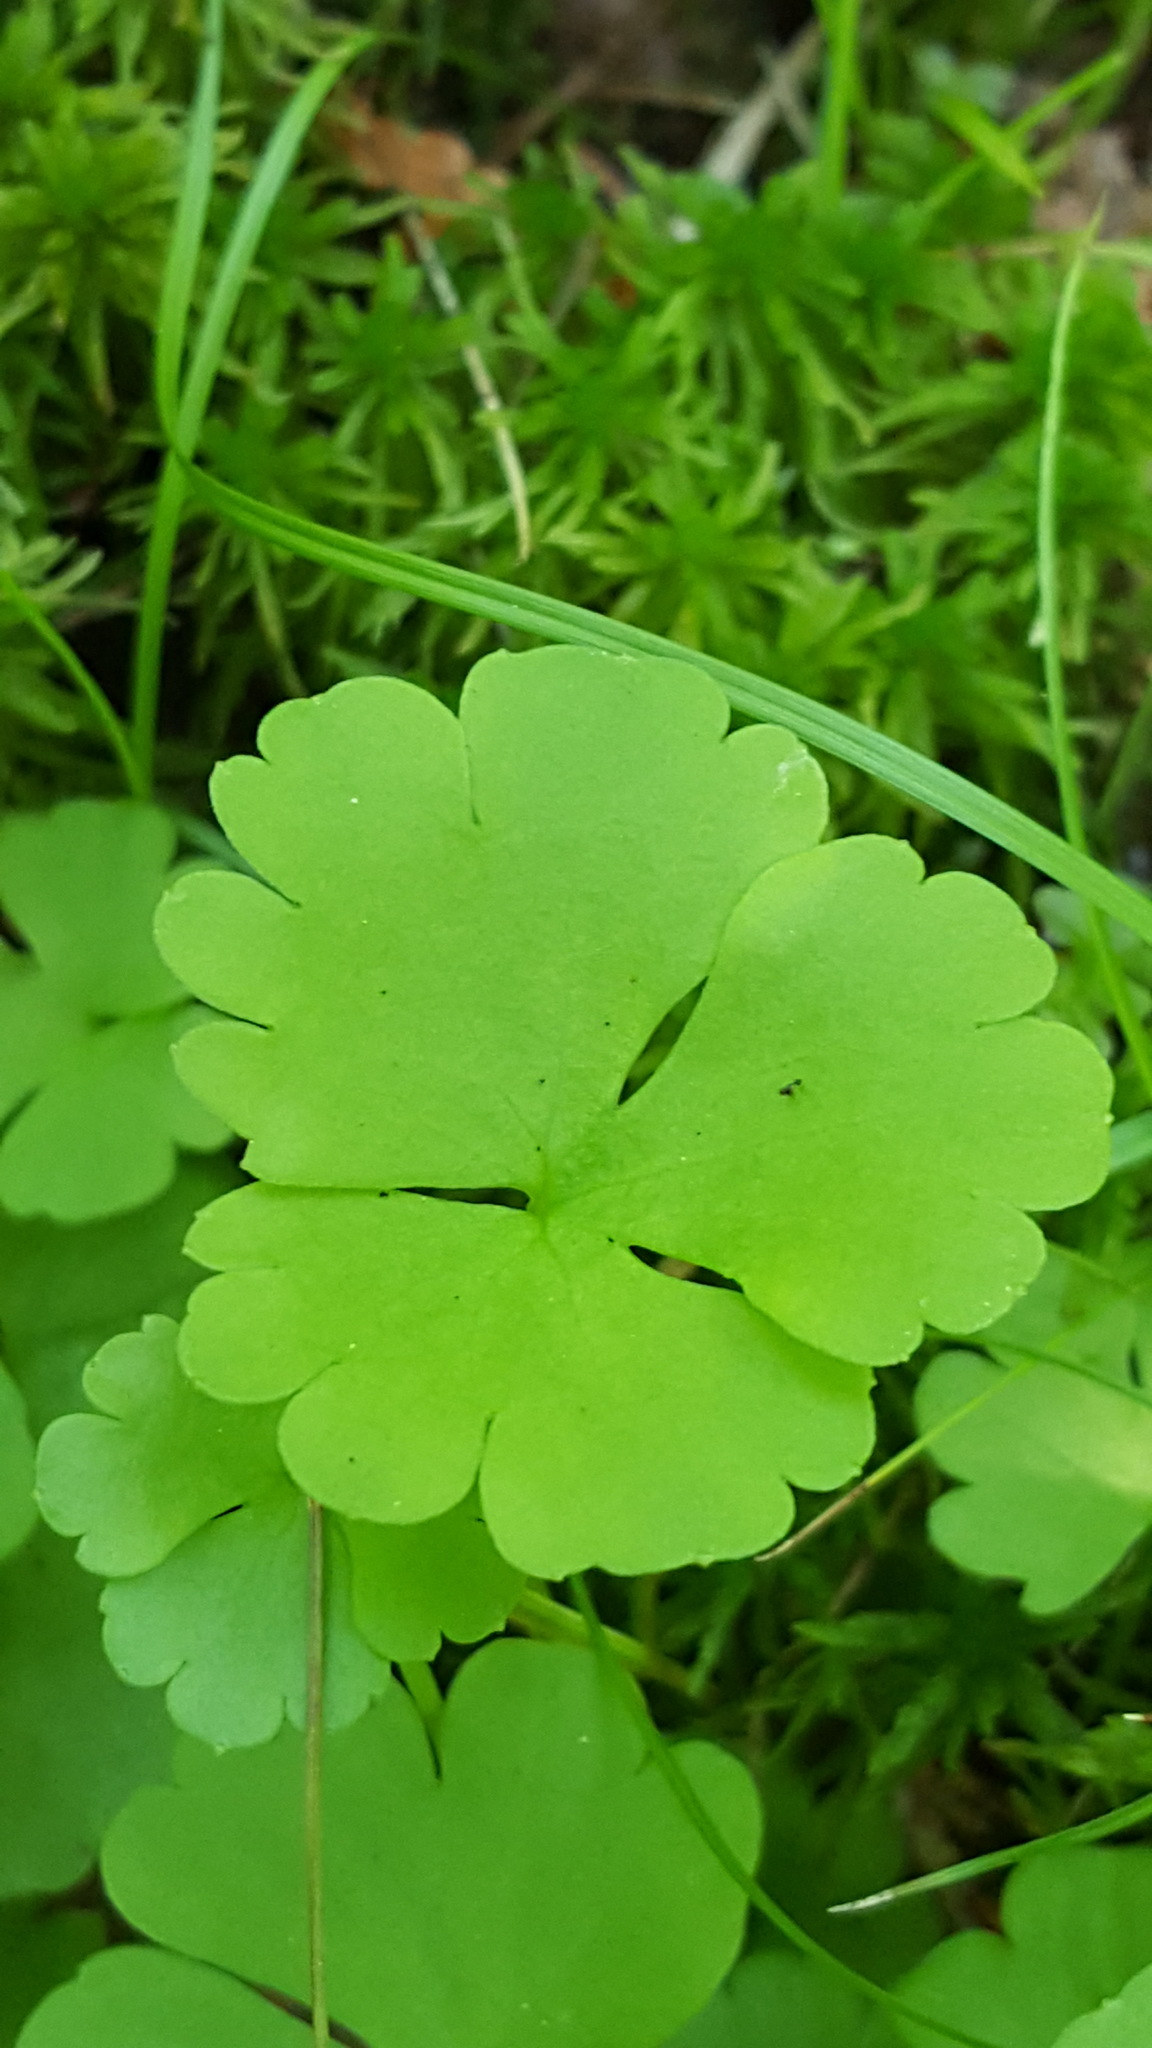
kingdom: Plantae
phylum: Tracheophyta
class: Magnoliopsida
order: Ranunculales
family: Ranunculaceae
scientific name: Ranunculaceae
